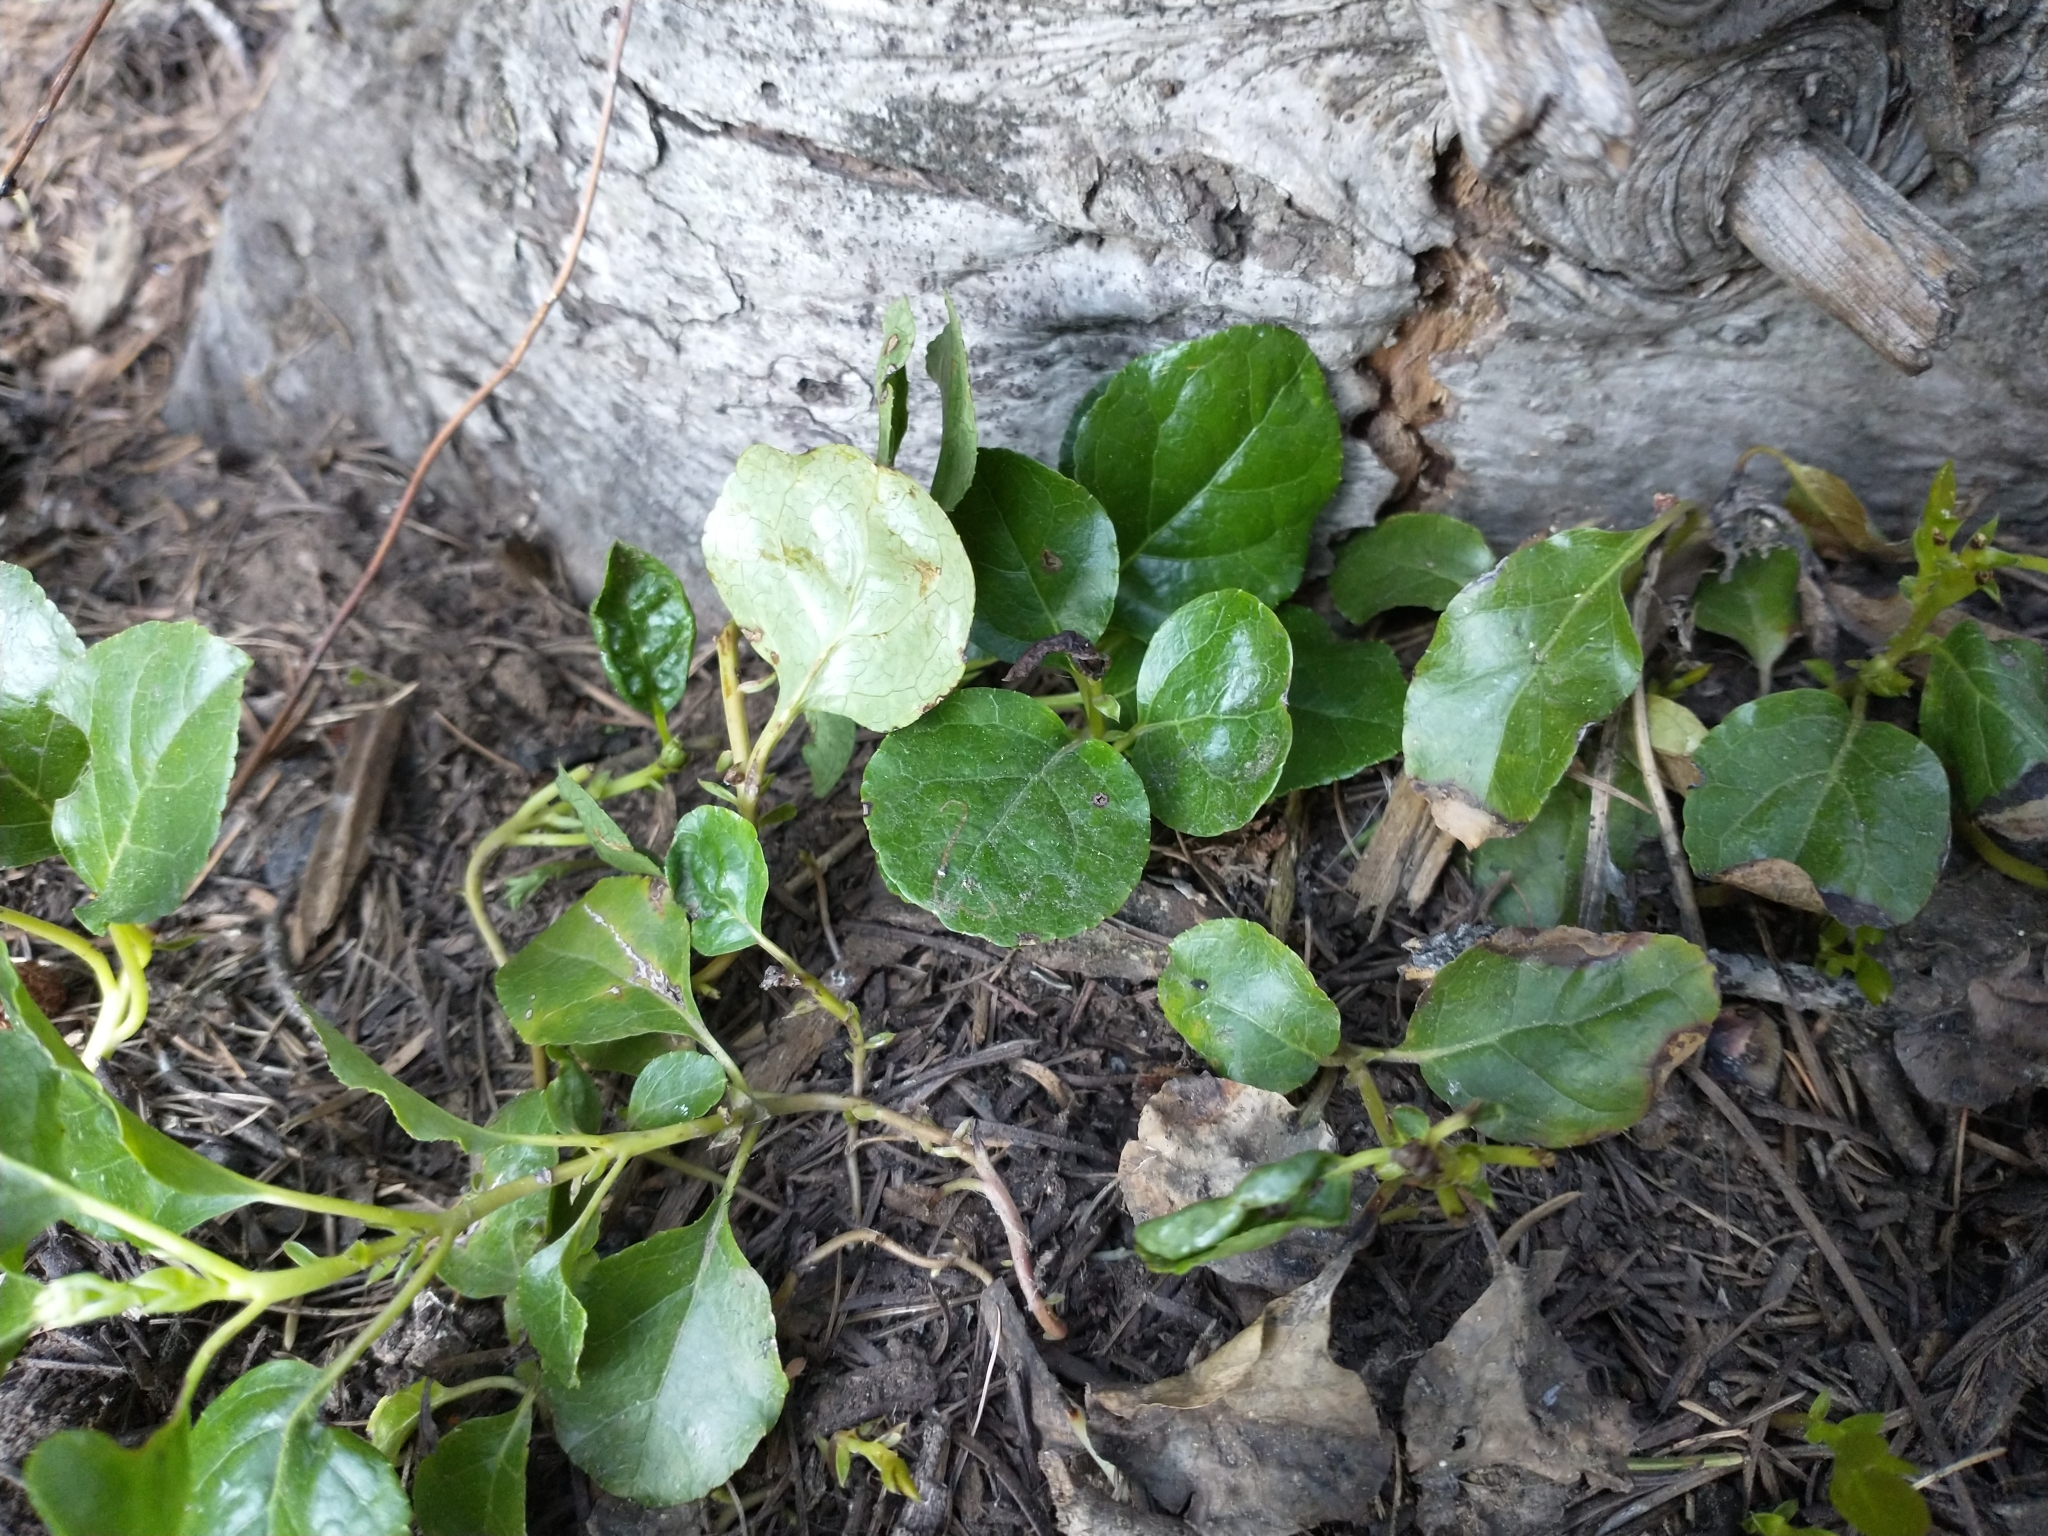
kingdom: Plantae
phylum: Tracheophyta
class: Magnoliopsida
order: Ericales
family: Ericaceae
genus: Orthilia
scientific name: Orthilia secunda
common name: One-sided orthilia
